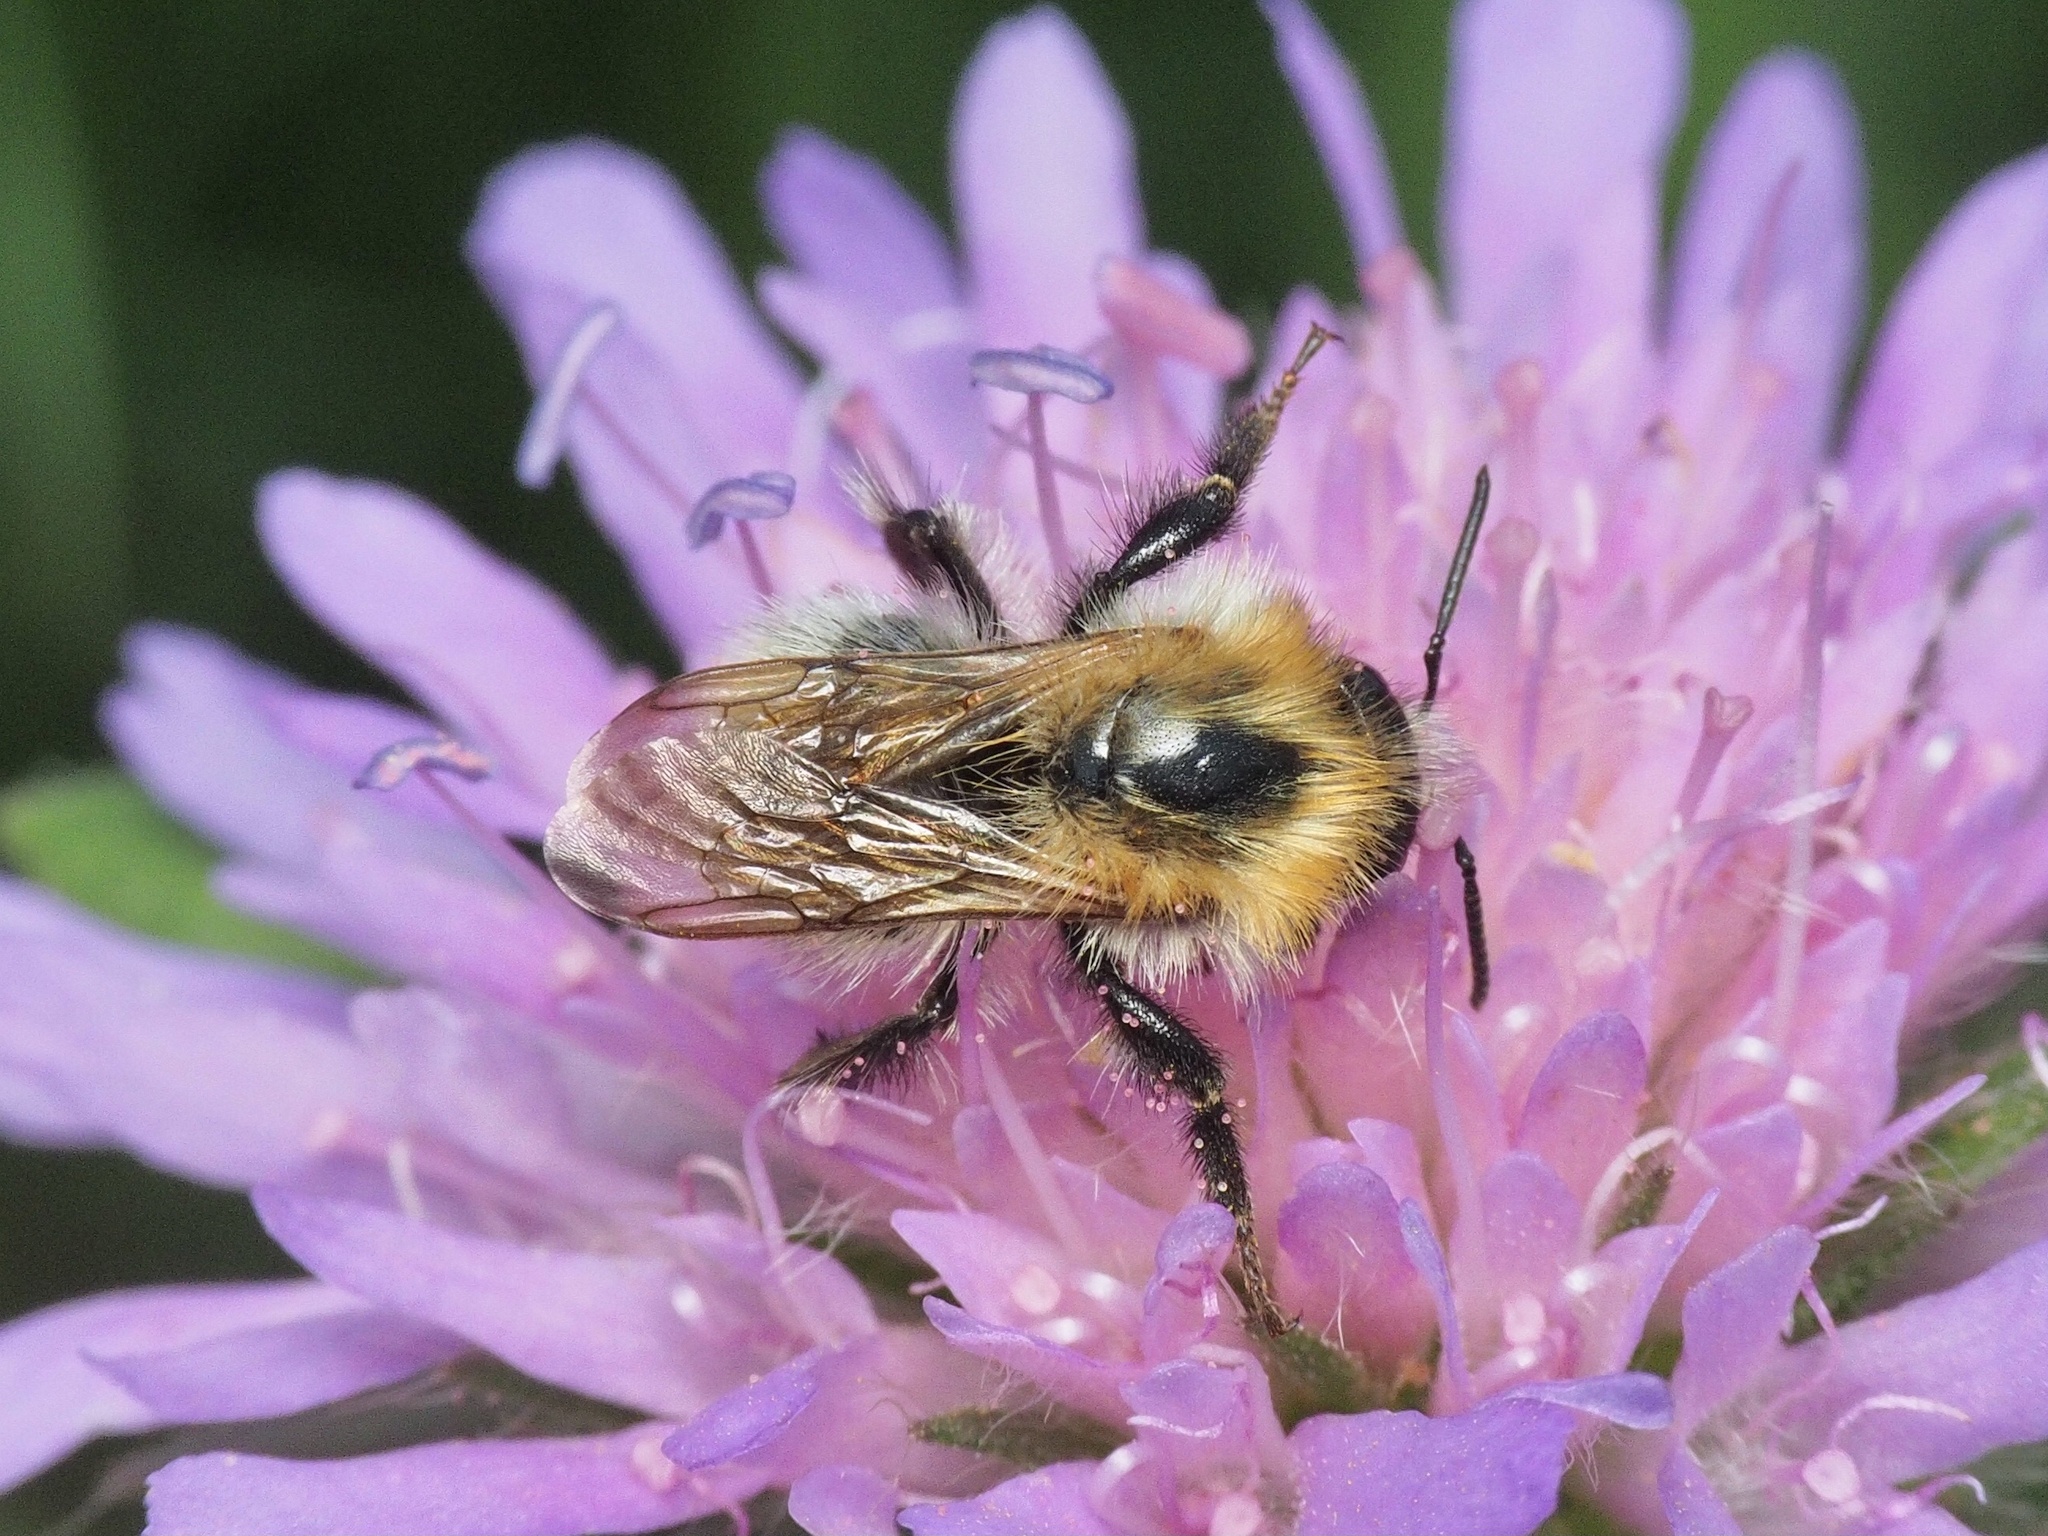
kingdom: Animalia
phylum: Arthropoda
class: Insecta
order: Hymenoptera
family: Apidae
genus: Bombus
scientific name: Bombus pascuorum
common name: Common carder bee
